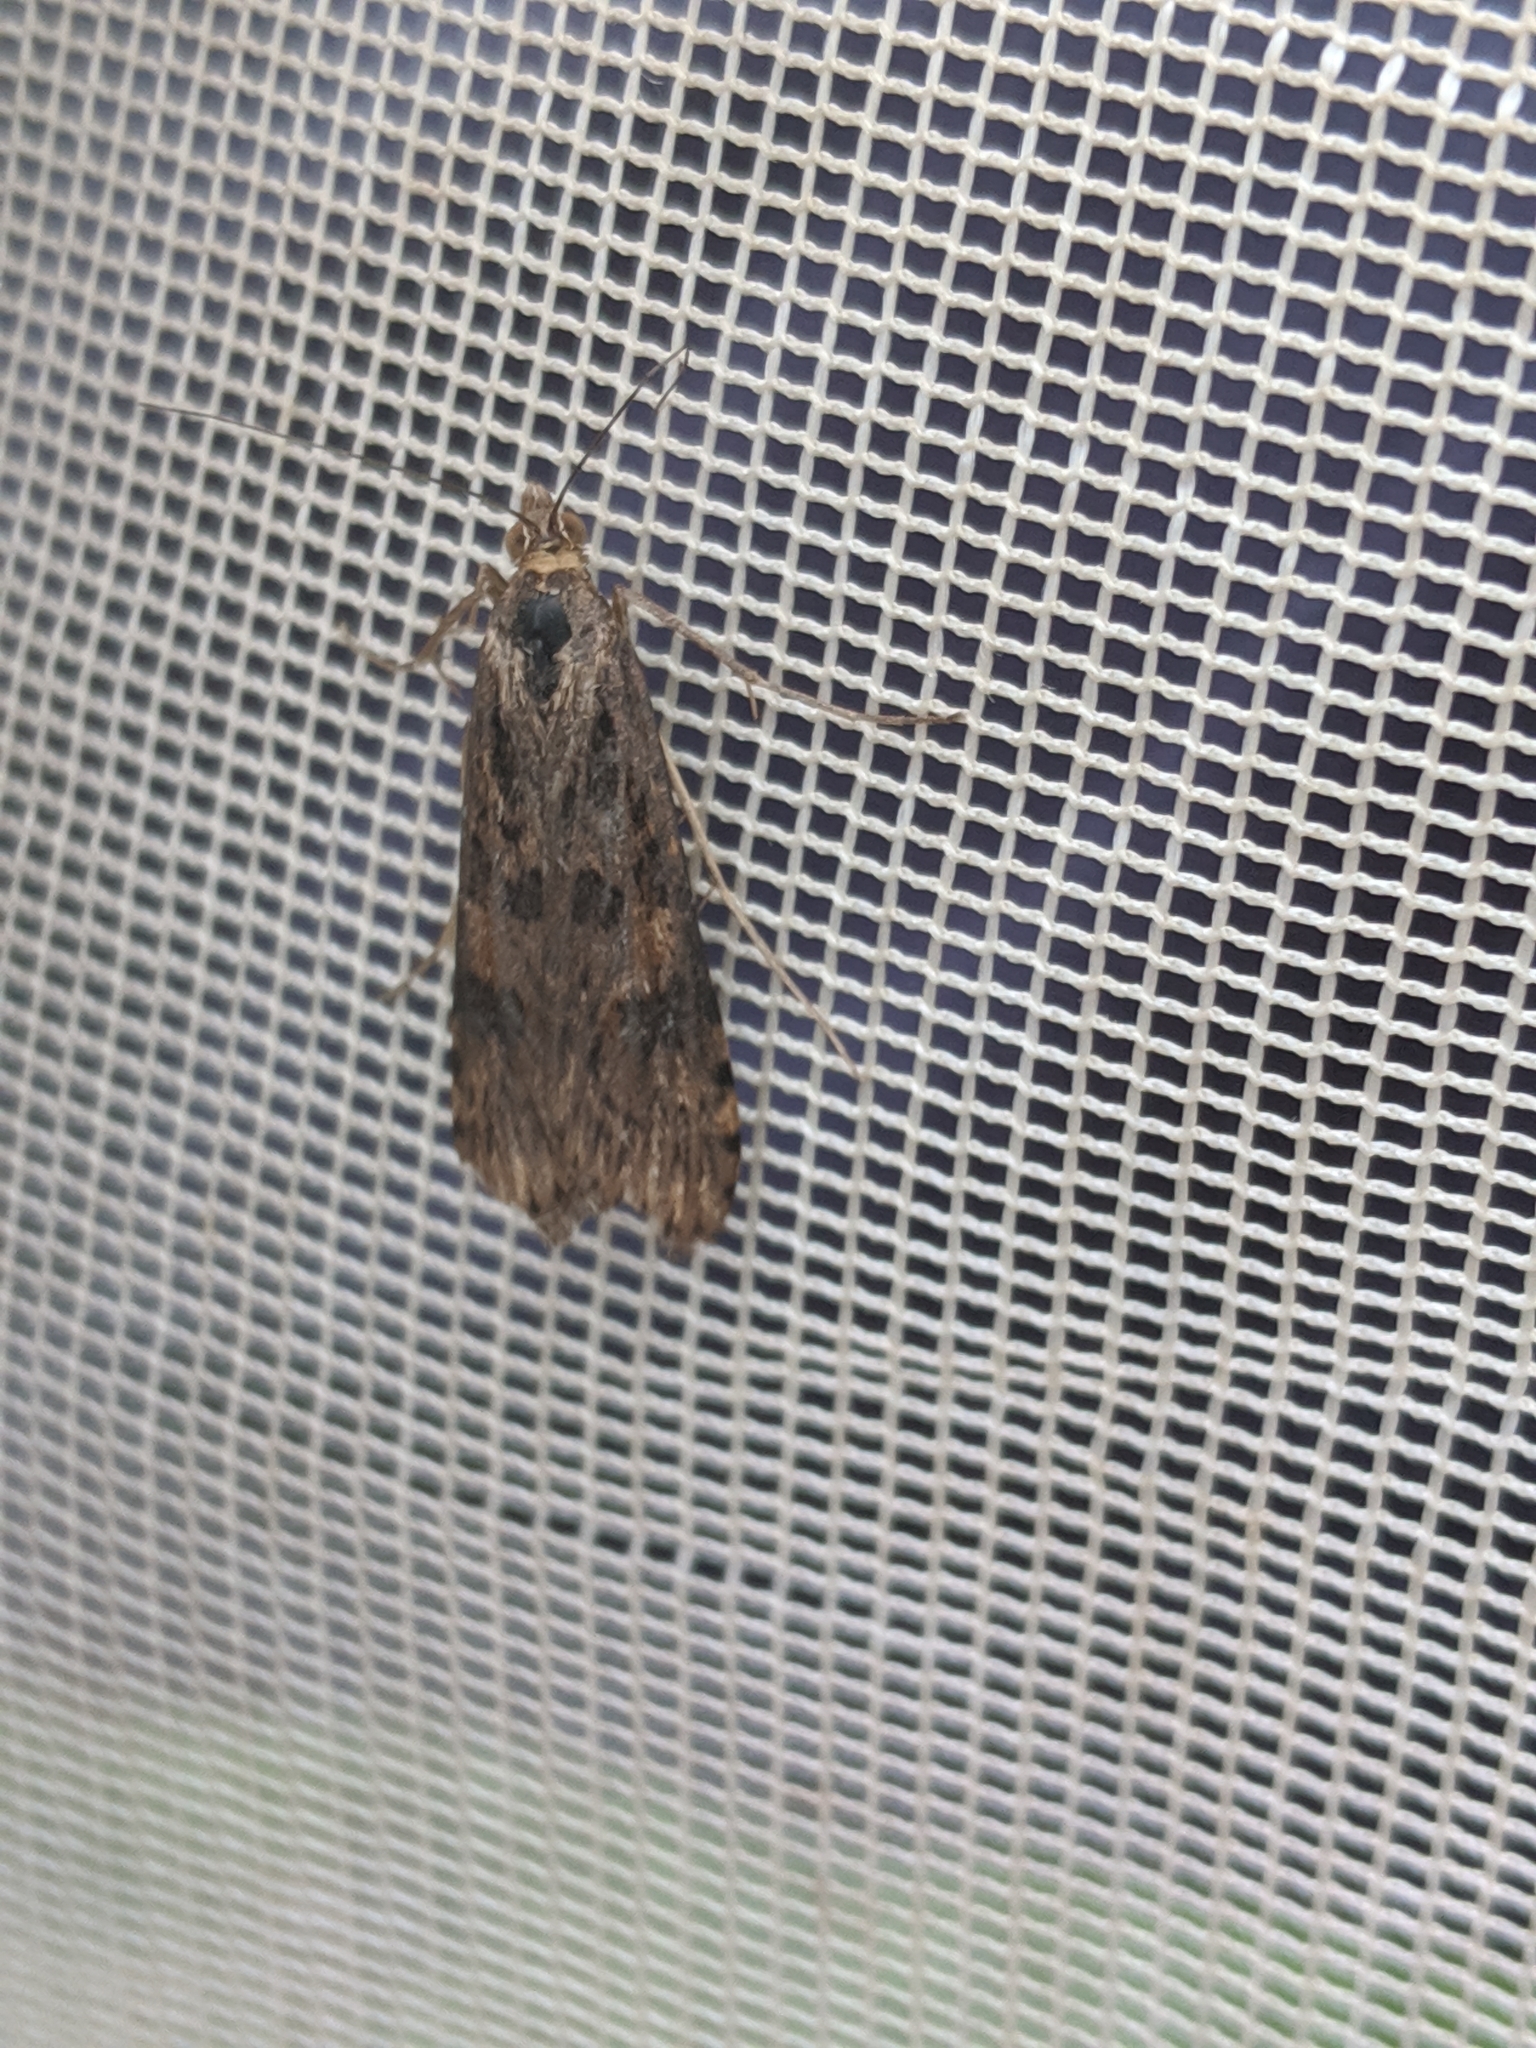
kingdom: Animalia
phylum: Arthropoda
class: Insecta
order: Lepidoptera
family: Crambidae
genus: Nomophila
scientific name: Nomophila nearctica
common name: American rush veneer
